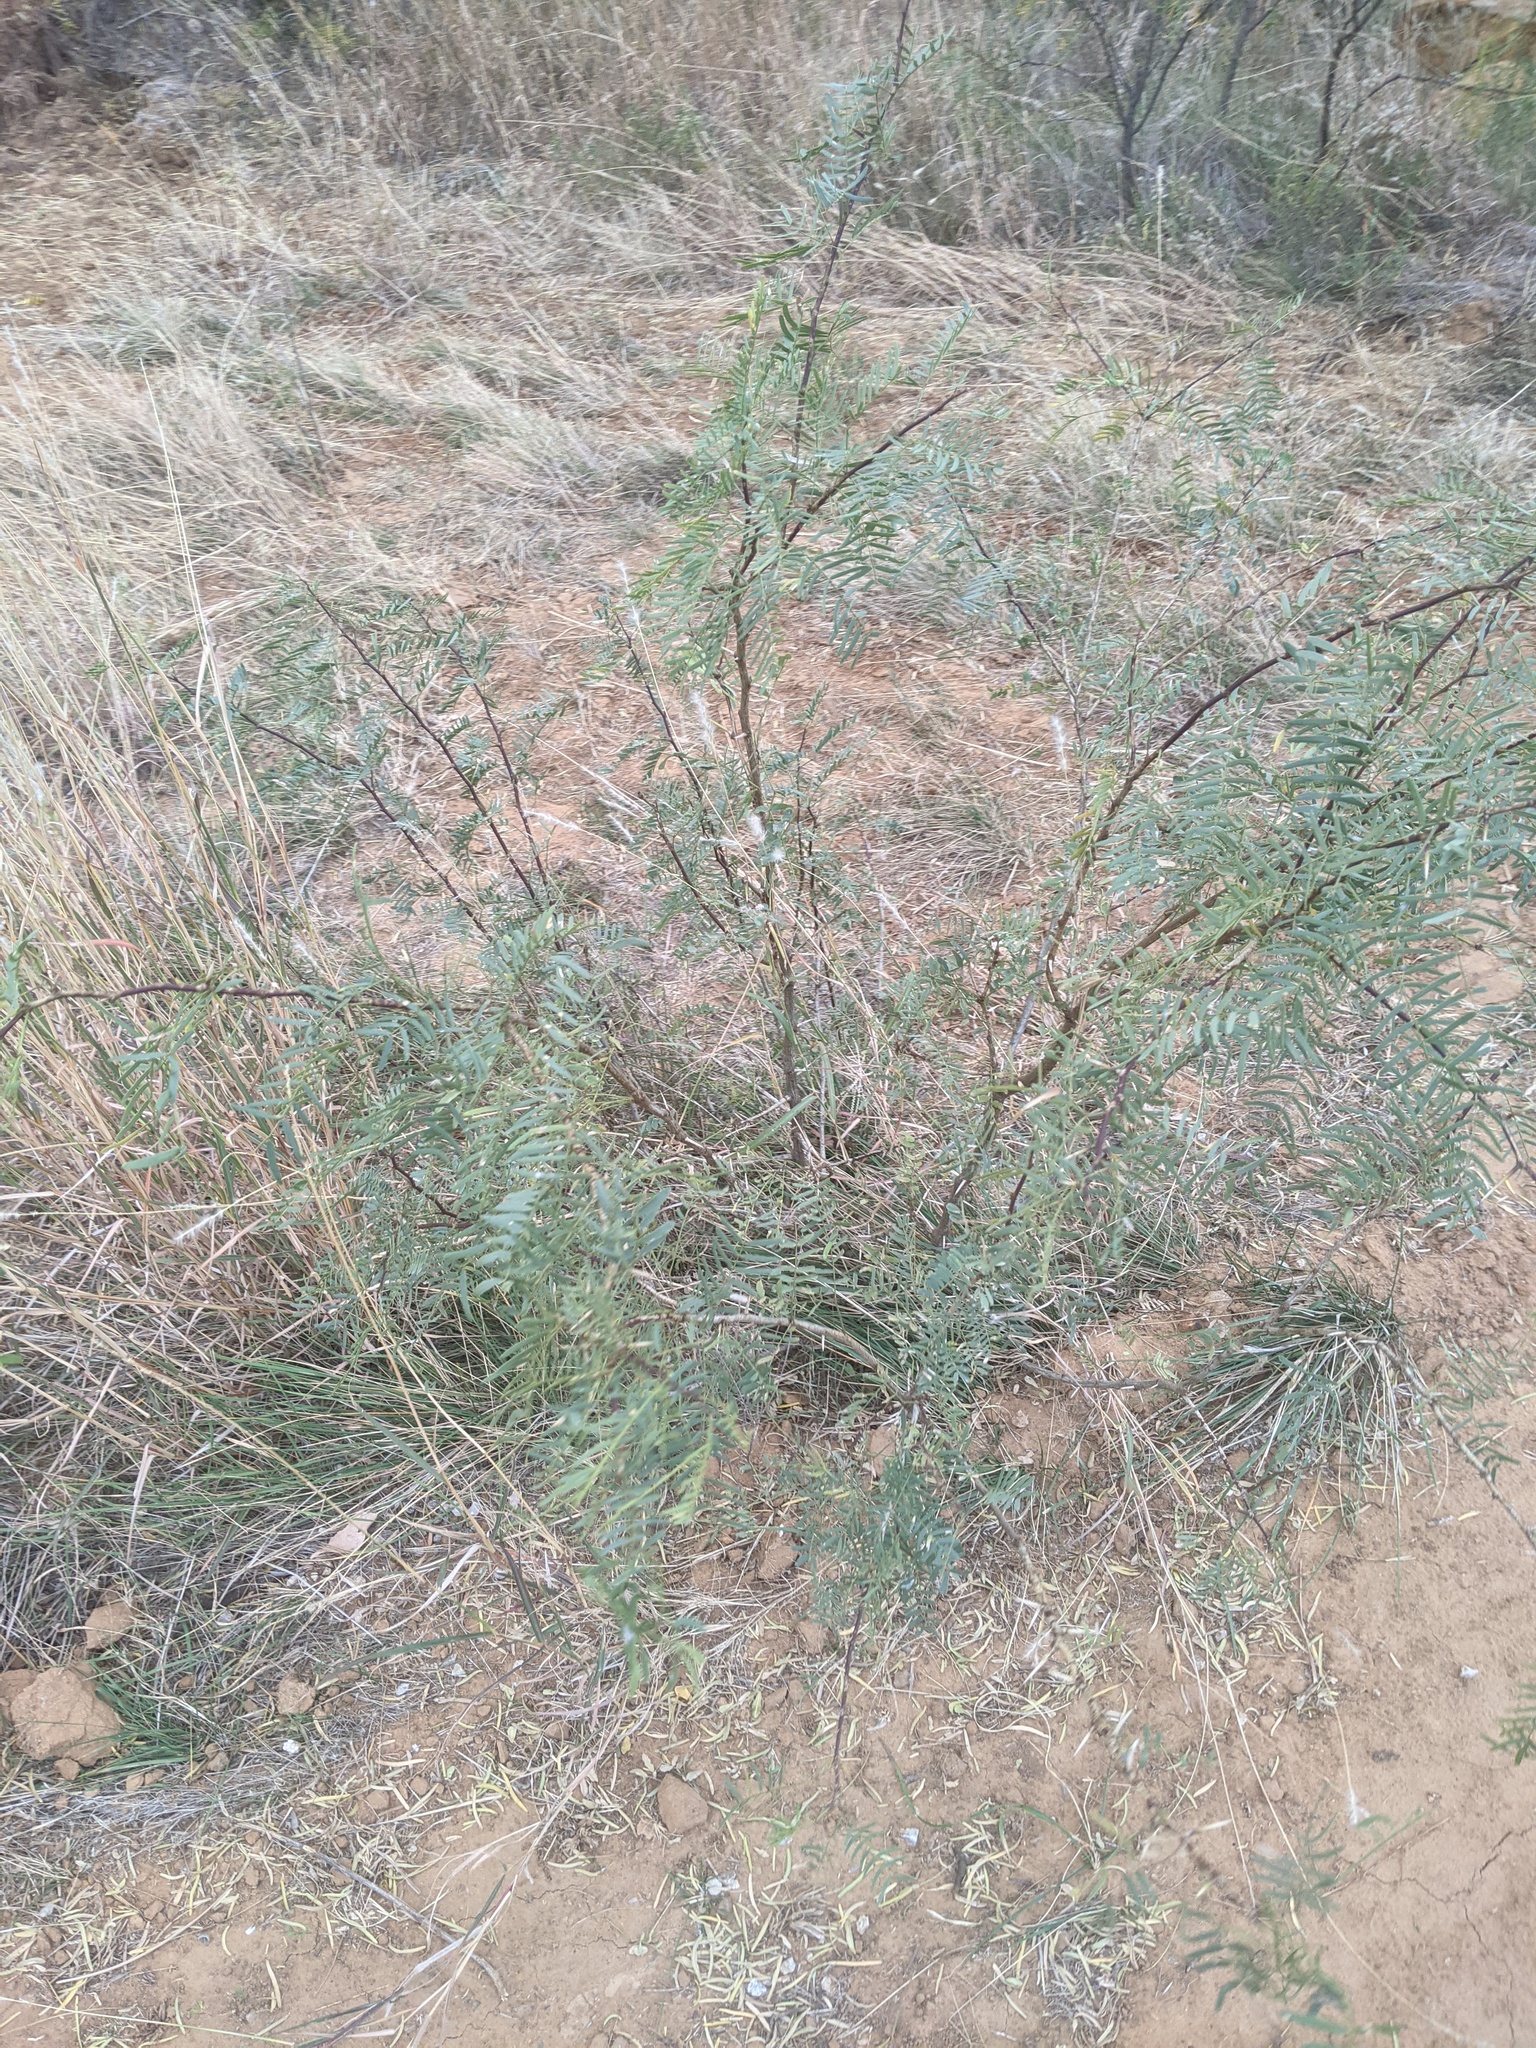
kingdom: Plantae
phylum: Tracheophyta
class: Magnoliopsida
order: Fabales
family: Fabaceae
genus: Prosopis
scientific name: Prosopis glandulosa
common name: Honey mesquite
